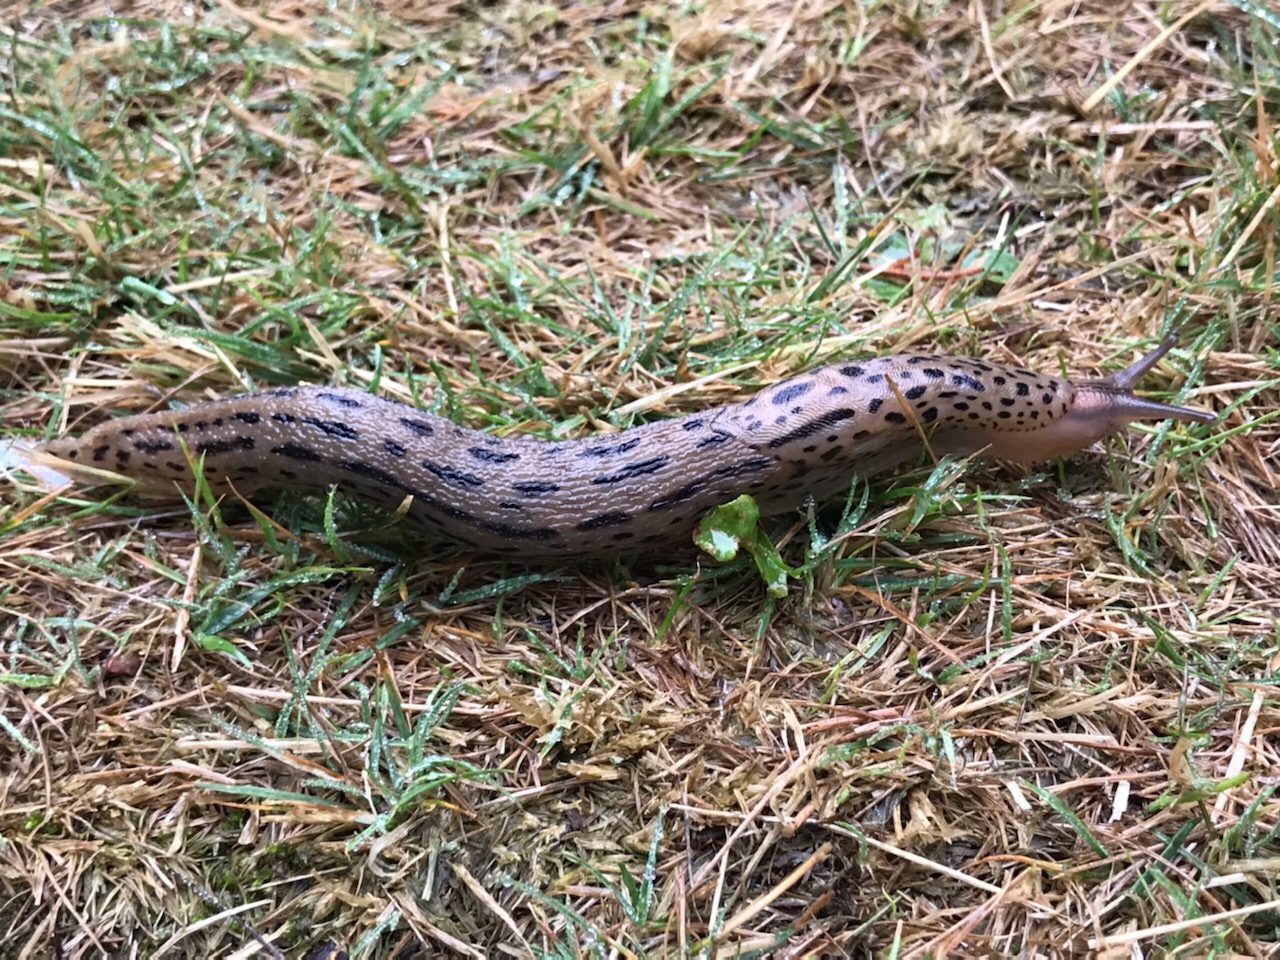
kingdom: Animalia
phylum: Mollusca
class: Gastropoda
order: Stylommatophora
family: Limacidae
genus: Limax
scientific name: Limax maximus
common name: Great grey slug
